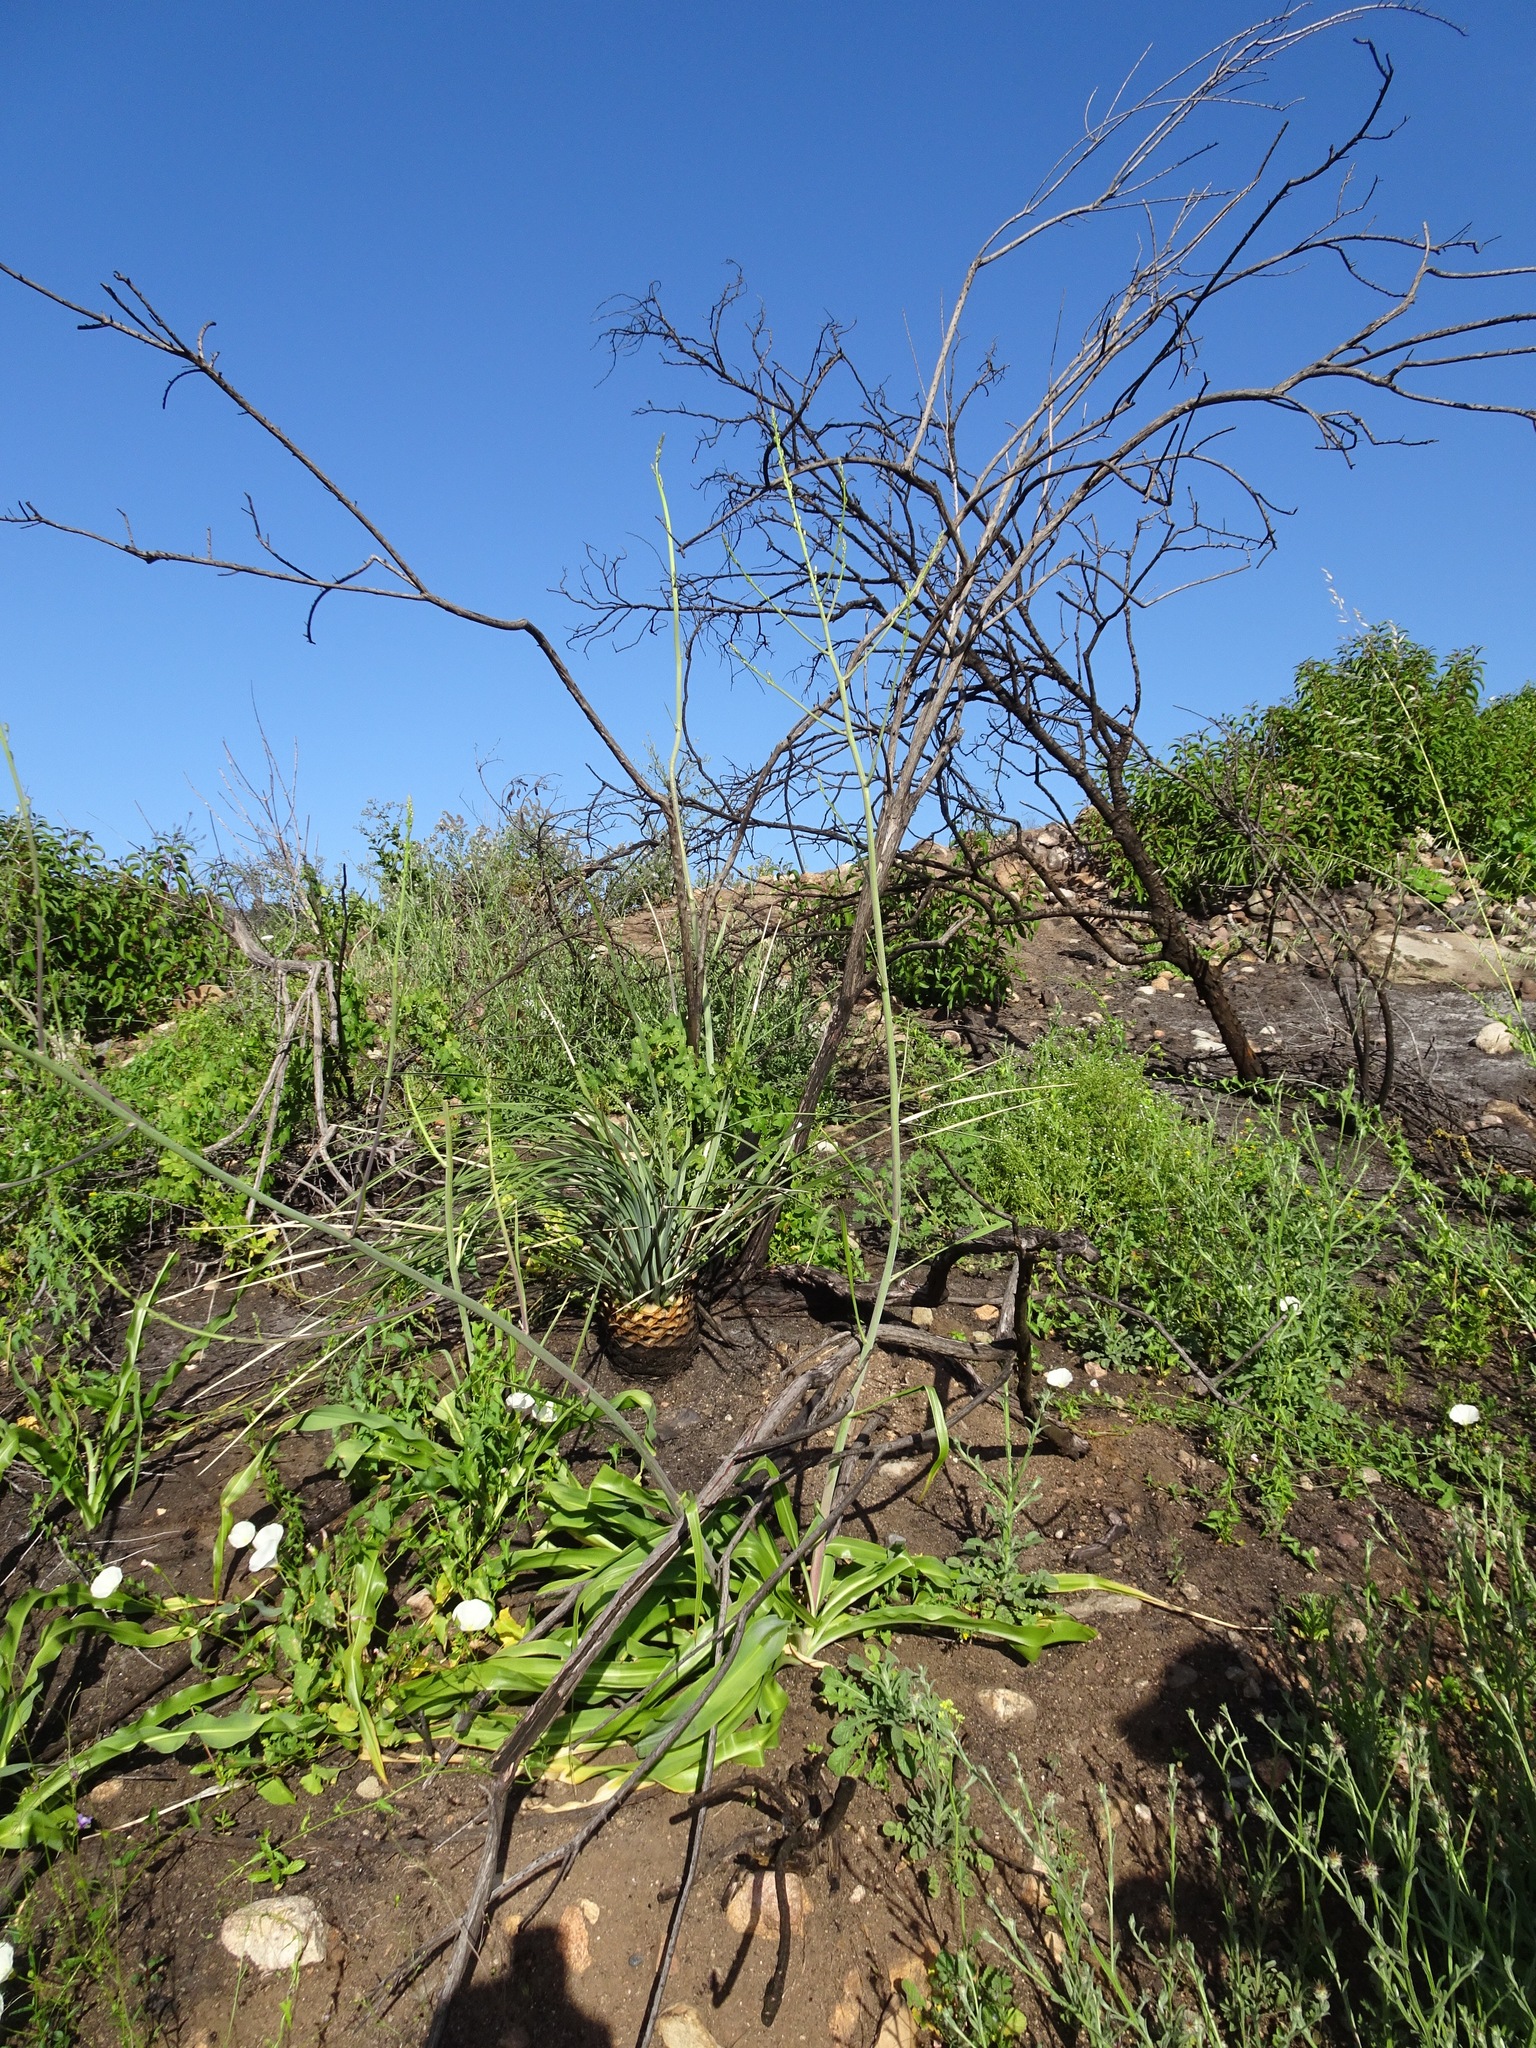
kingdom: Plantae
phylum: Tracheophyta
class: Liliopsida
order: Asparagales
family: Asparagaceae
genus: Chlorogalum
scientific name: Chlorogalum pomeridianum
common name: Amole
